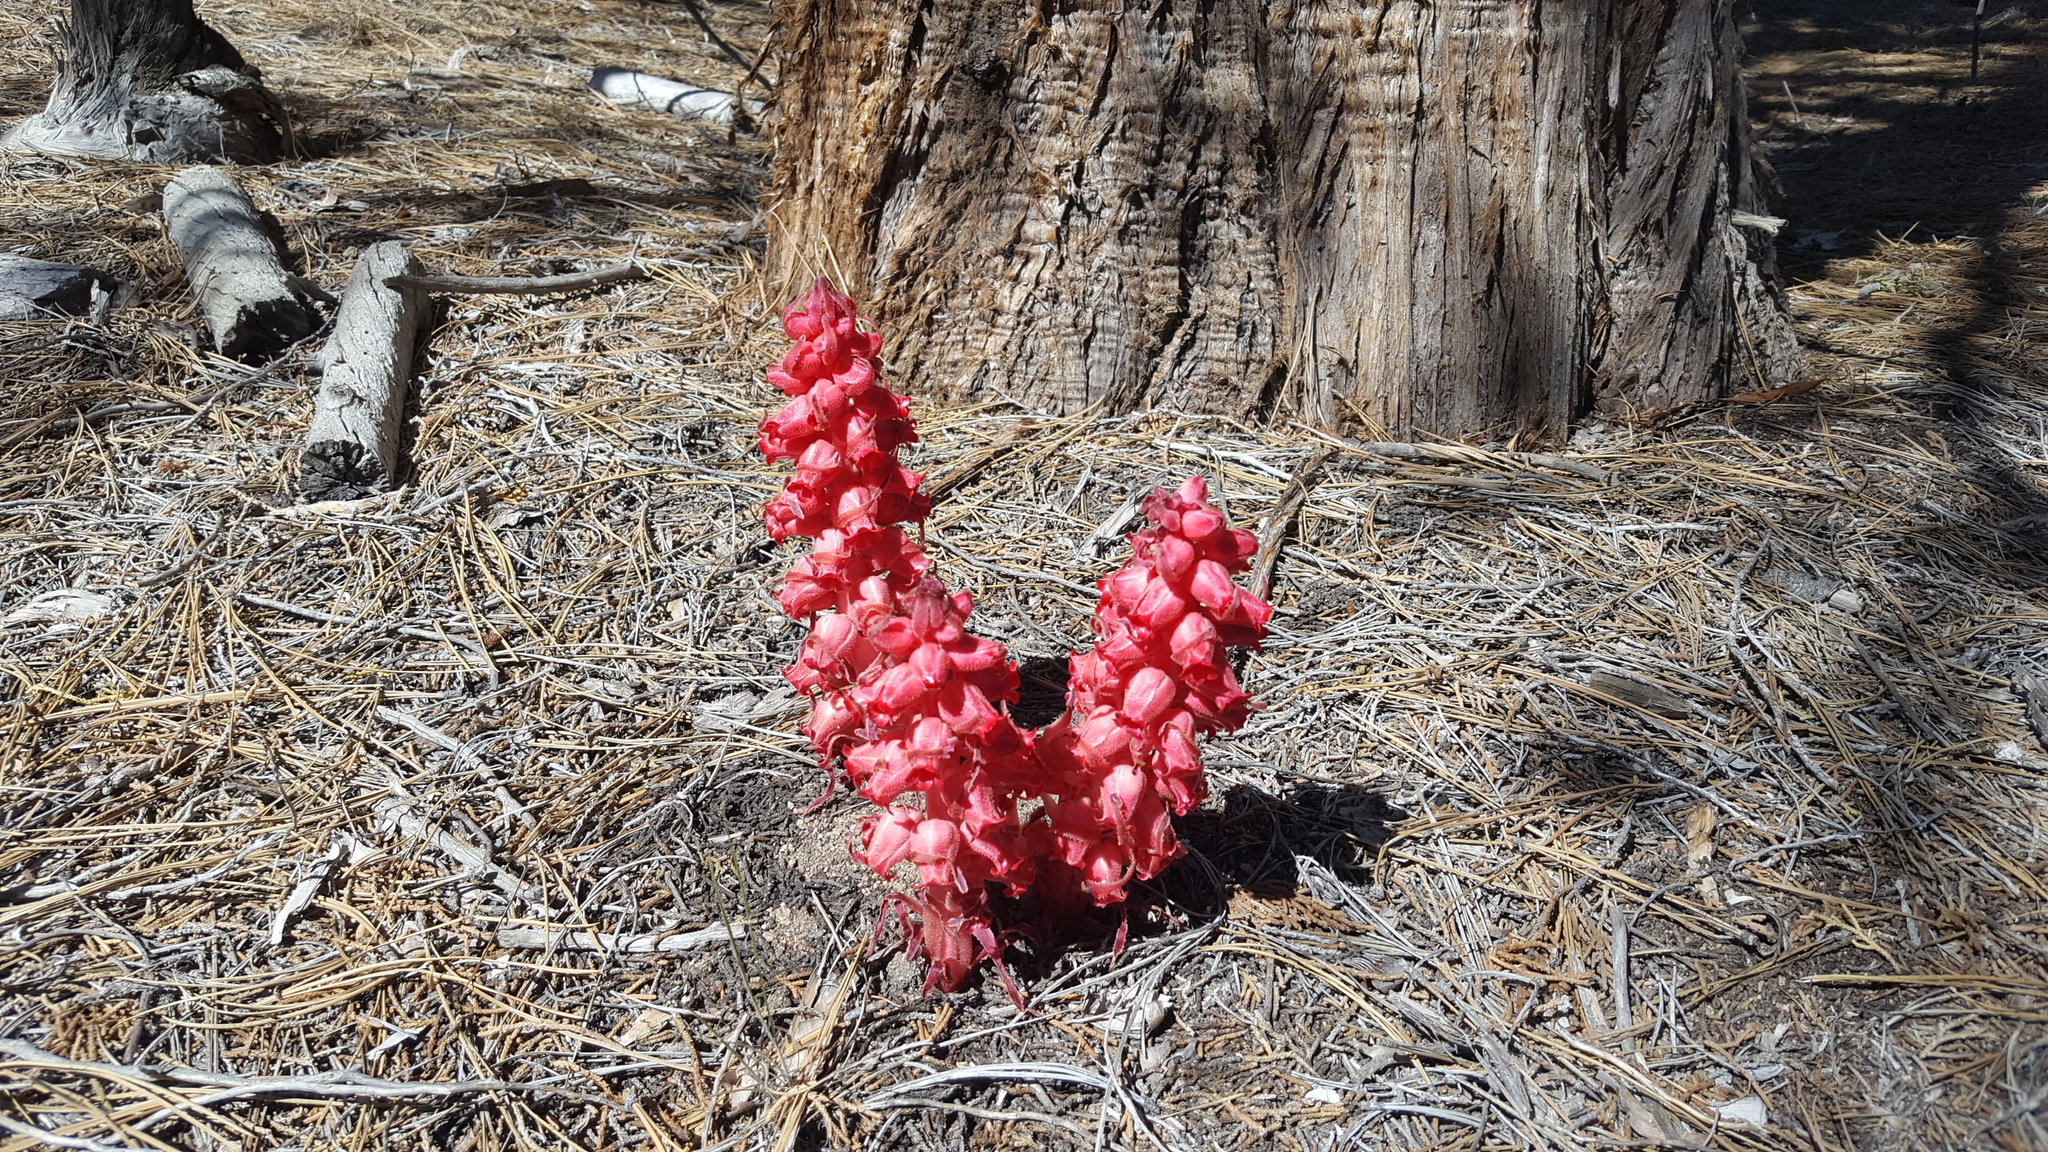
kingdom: Plantae
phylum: Tracheophyta
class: Magnoliopsida
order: Ericales
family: Ericaceae
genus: Sarcodes
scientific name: Sarcodes sanguinea
